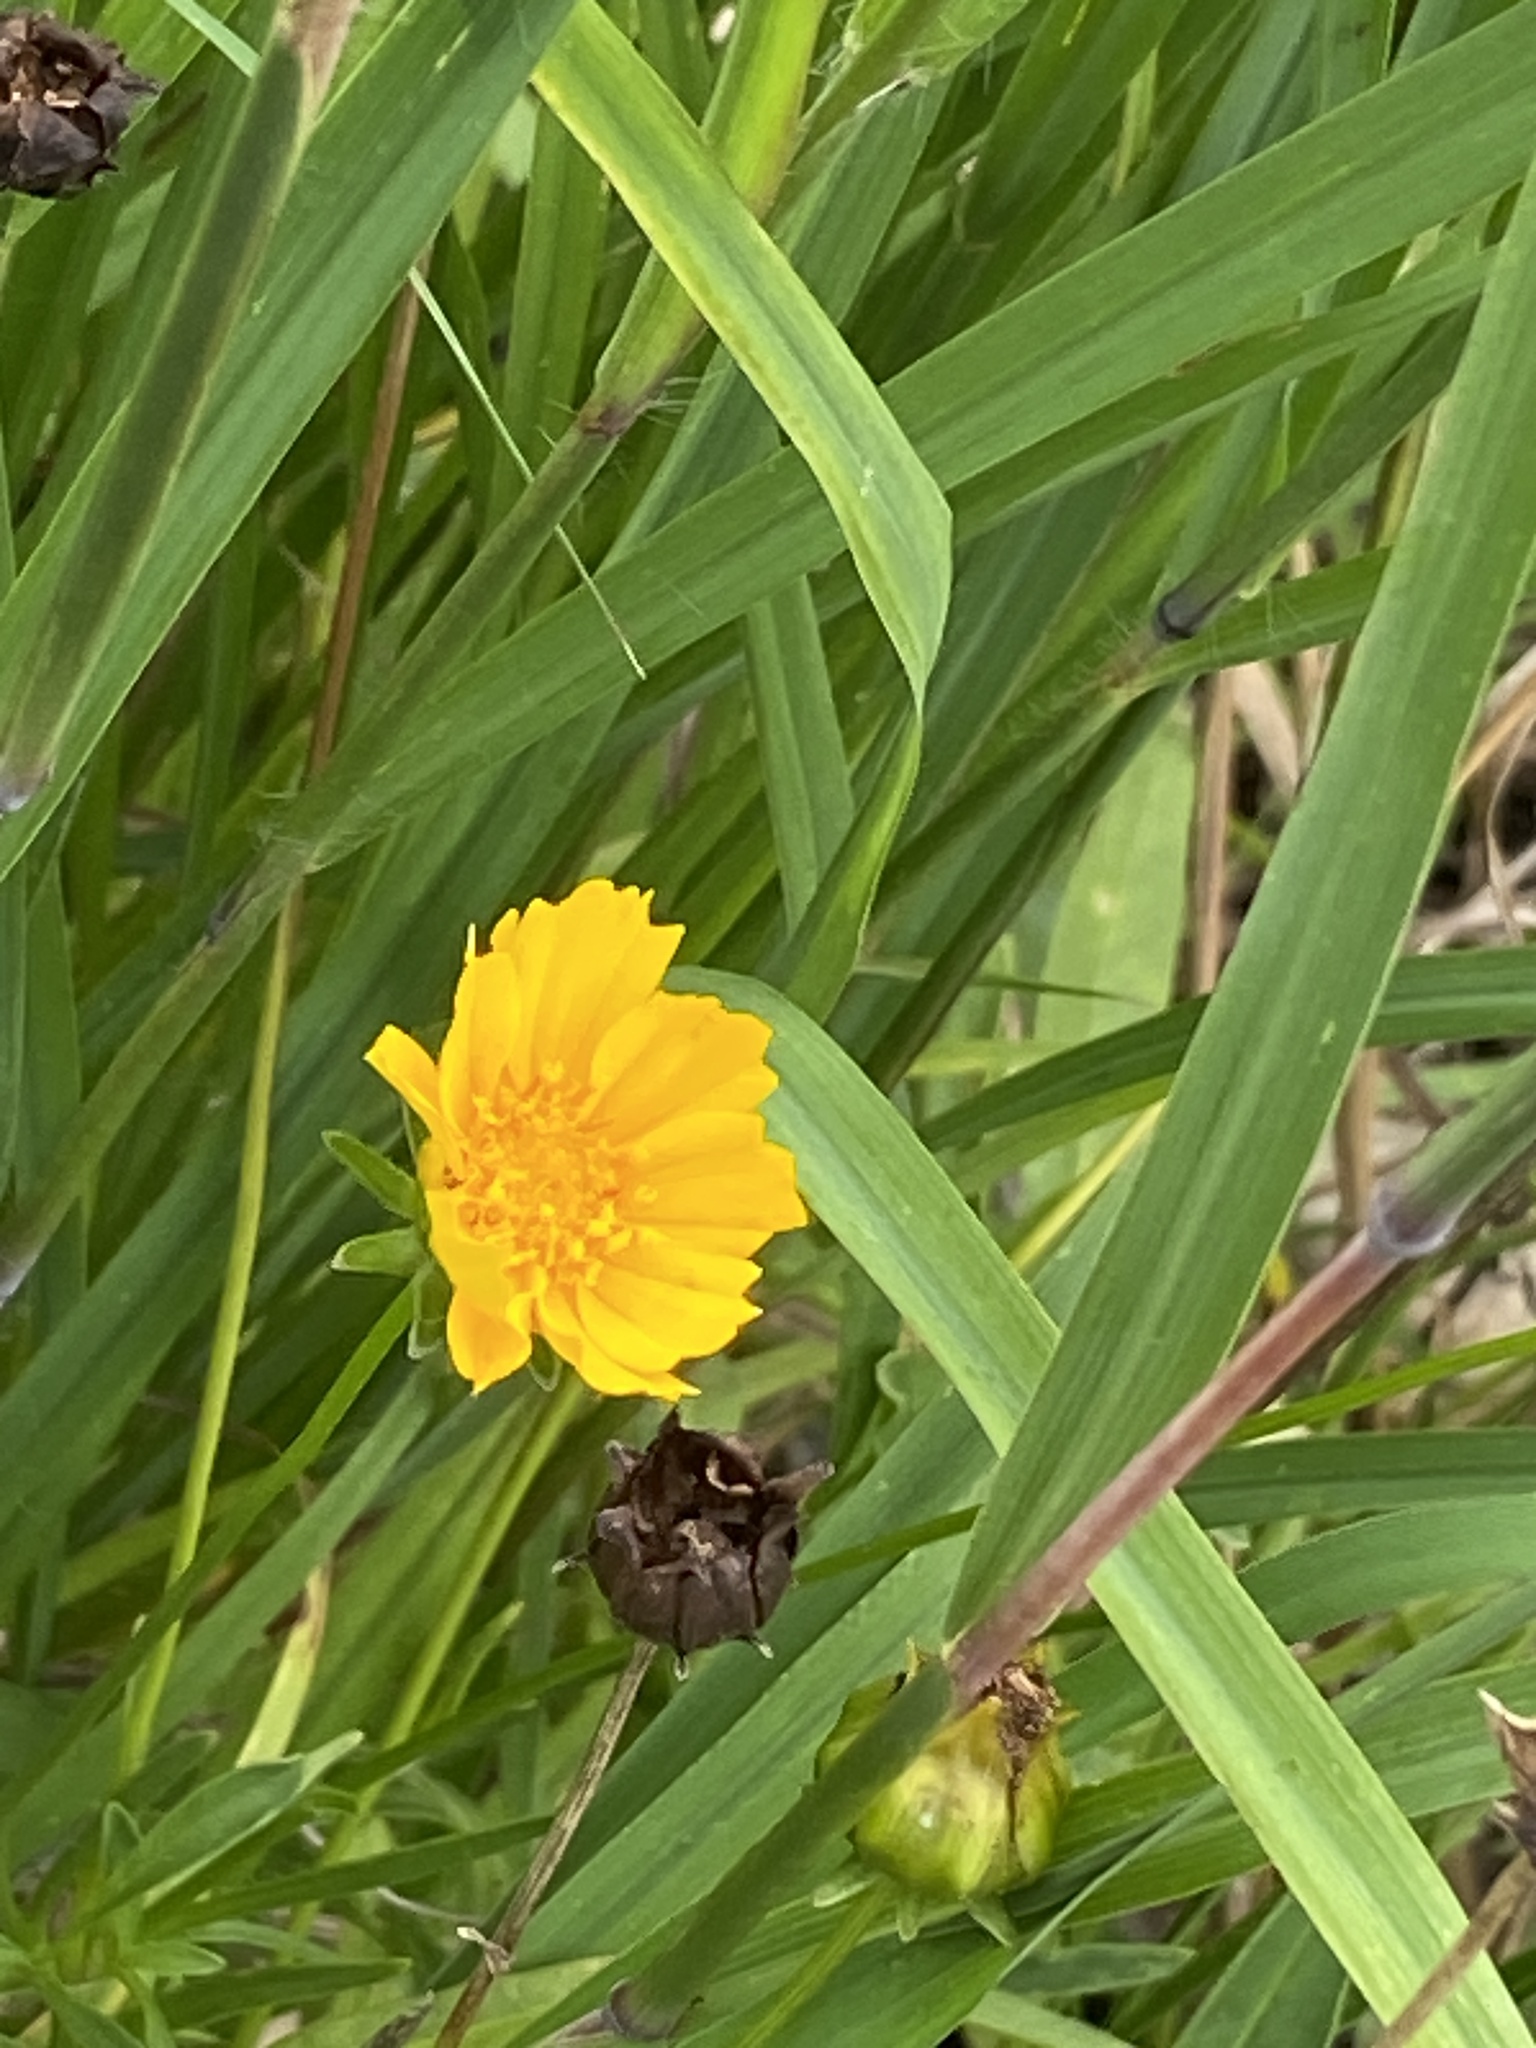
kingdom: Plantae
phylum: Tracheophyta
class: Magnoliopsida
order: Asterales
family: Asteraceae
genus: Coreopsis
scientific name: Coreopsis lanceolata
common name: Garden coreopsis
